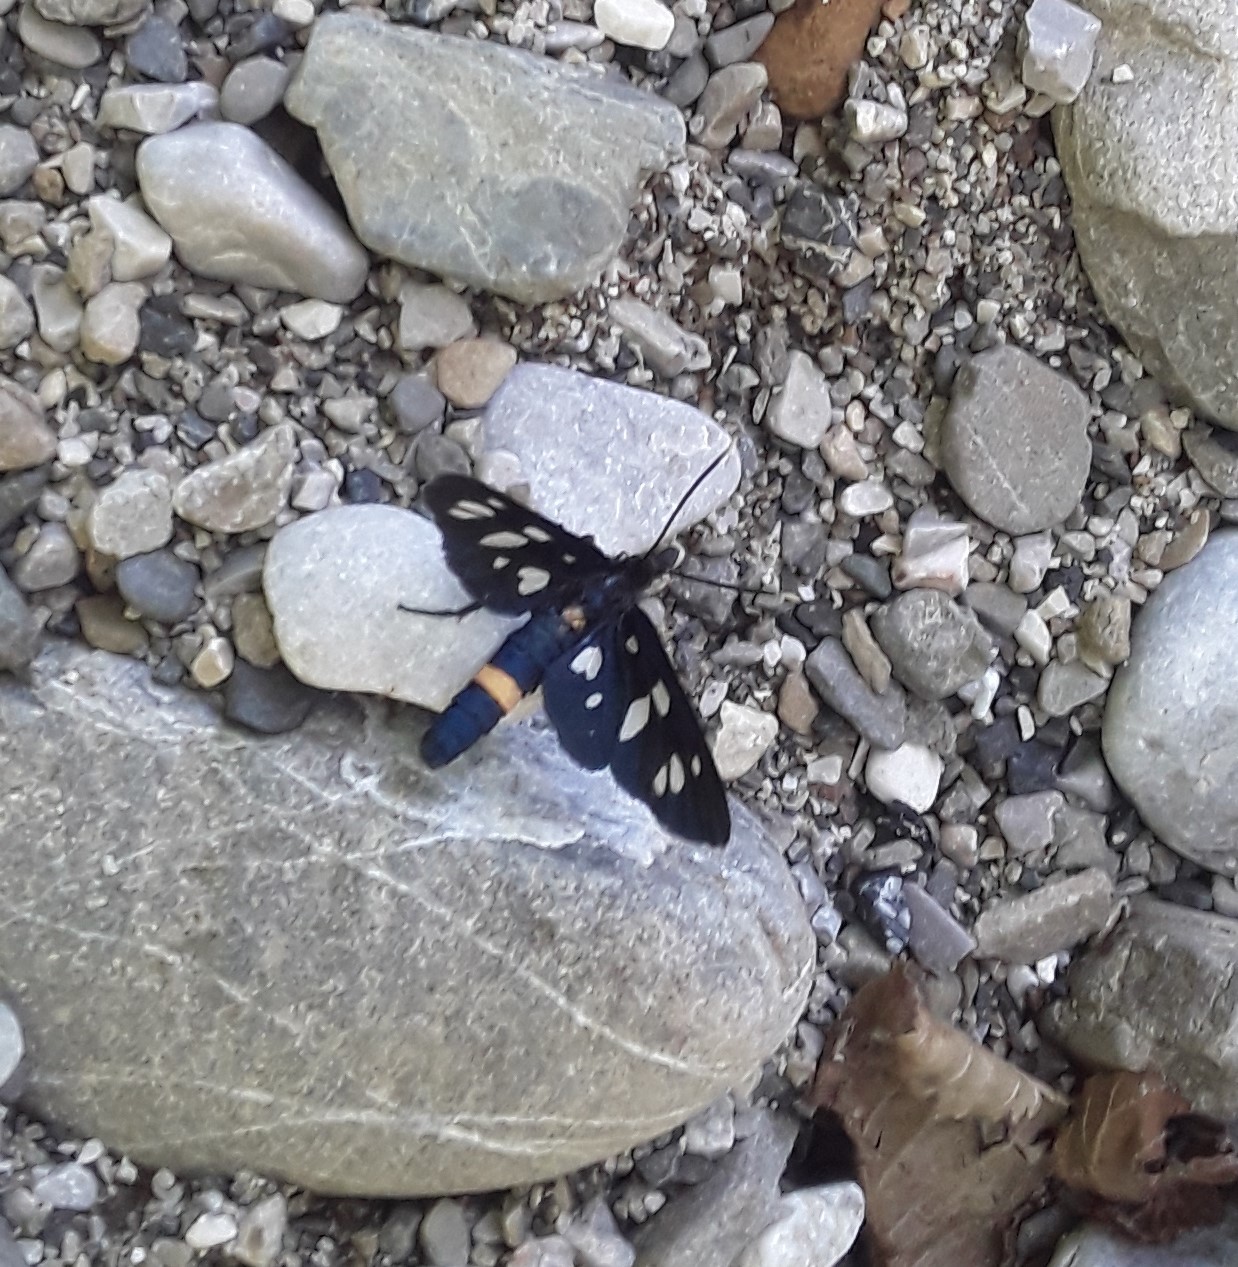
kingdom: Animalia
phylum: Arthropoda
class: Insecta
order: Lepidoptera
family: Erebidae
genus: Amata
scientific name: Amata nigricornis
